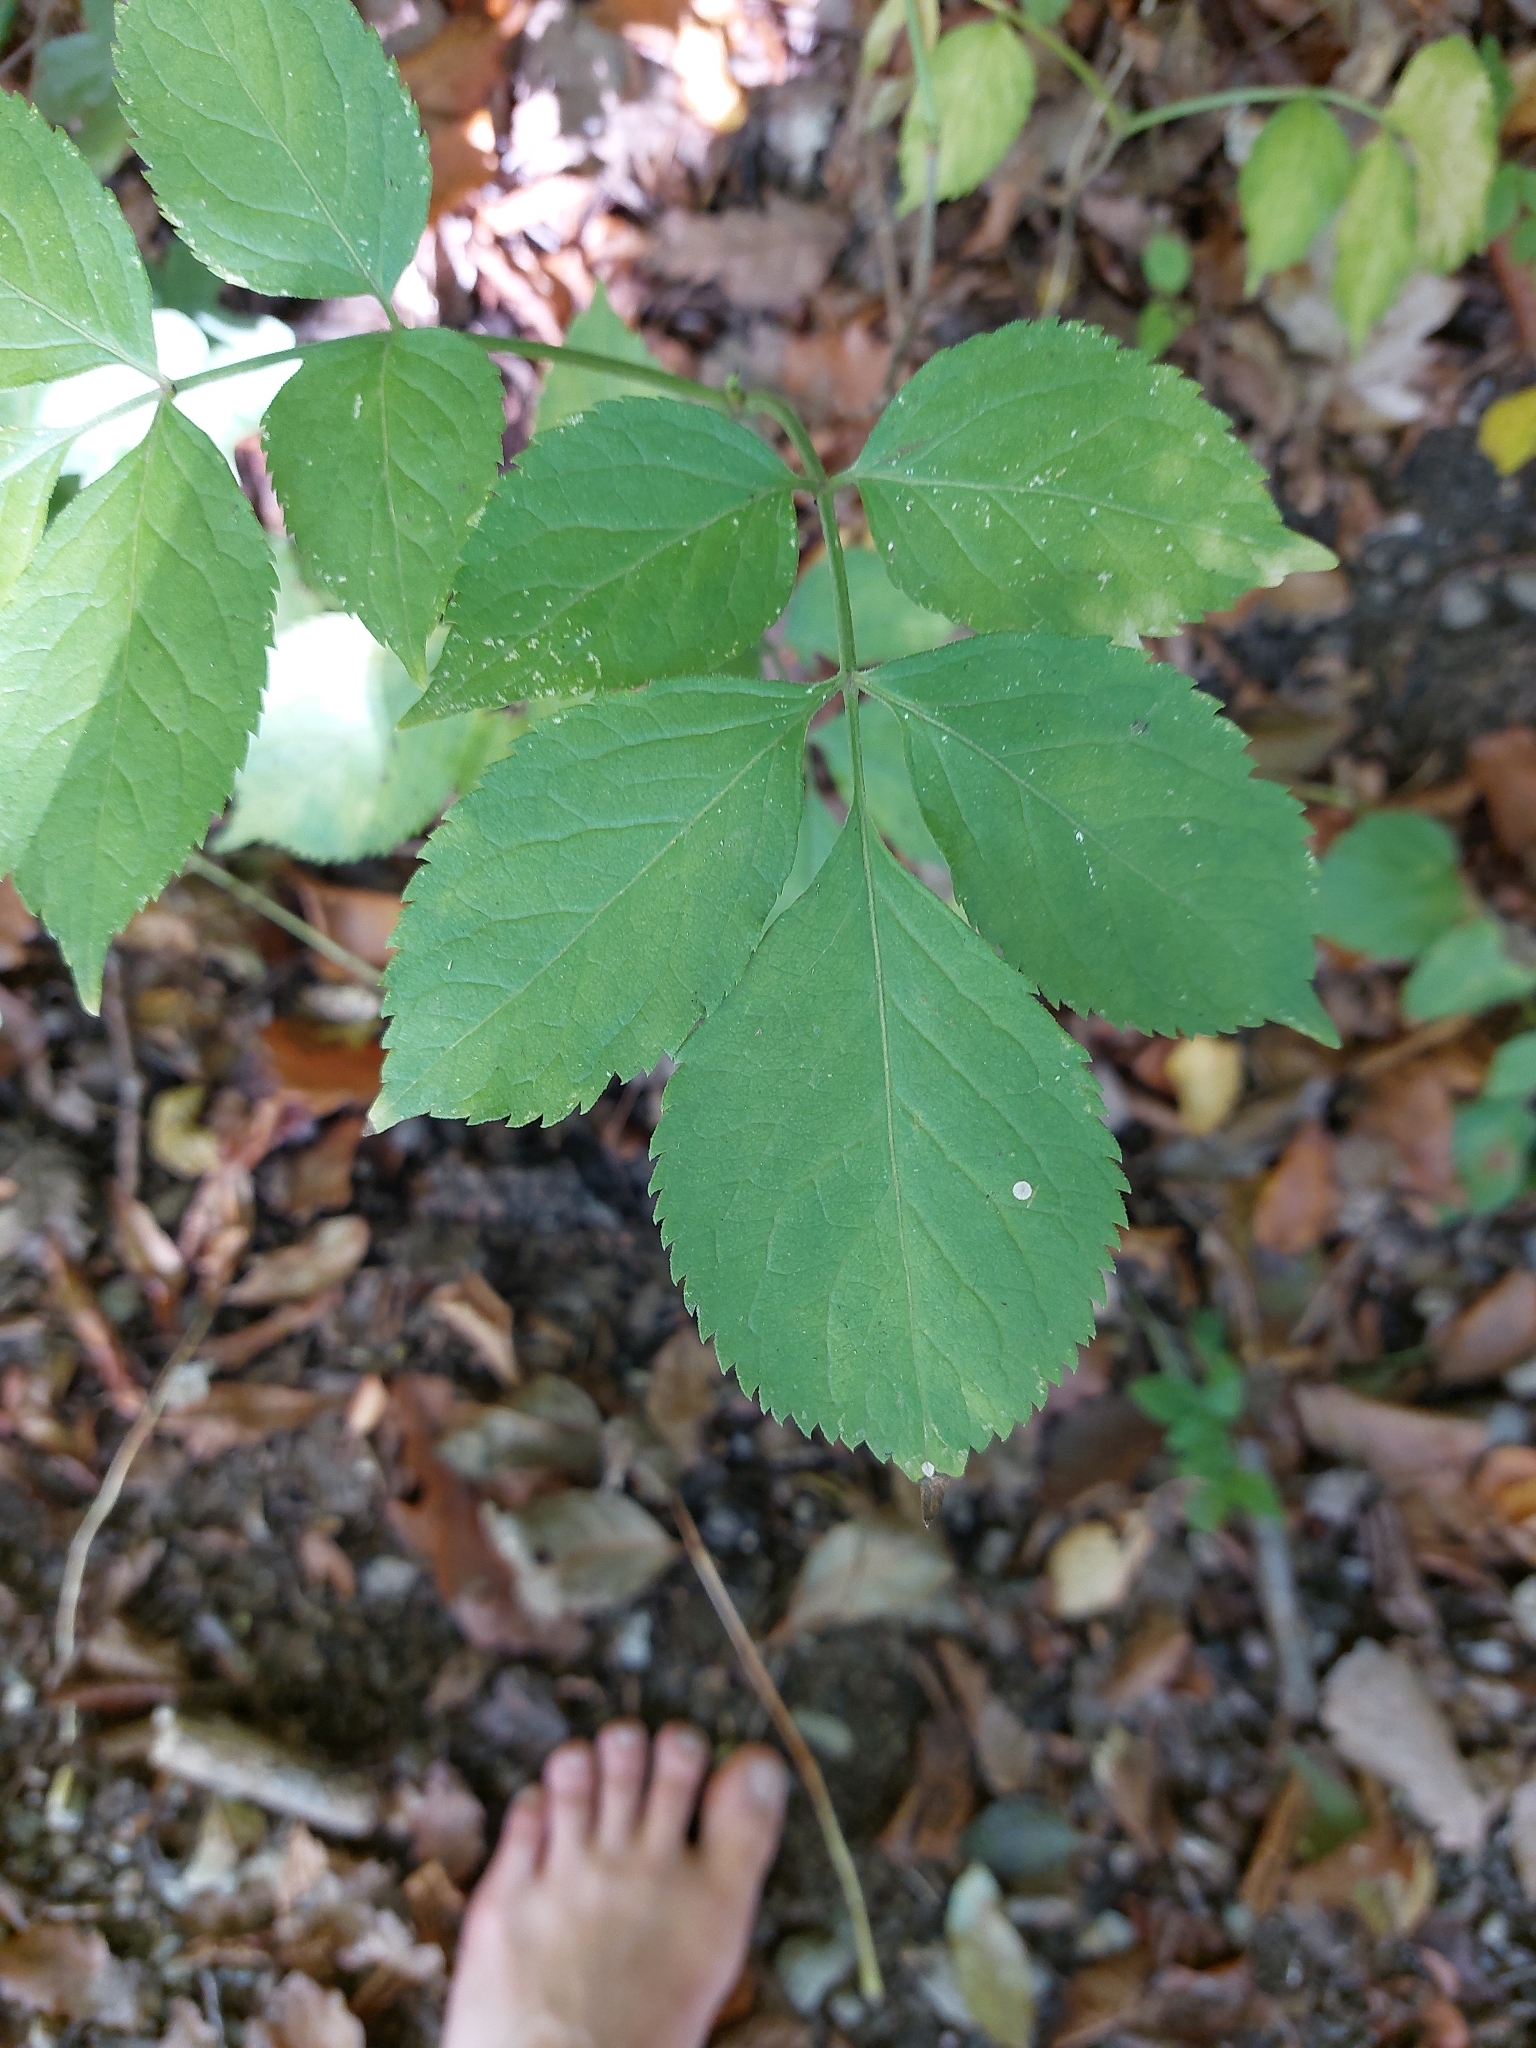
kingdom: Plantae
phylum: Tracheophyta
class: Magnoliopsida
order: Dipsacales
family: Viburnaceae
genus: Sambucus
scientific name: Sambucus nigra
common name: Elder
